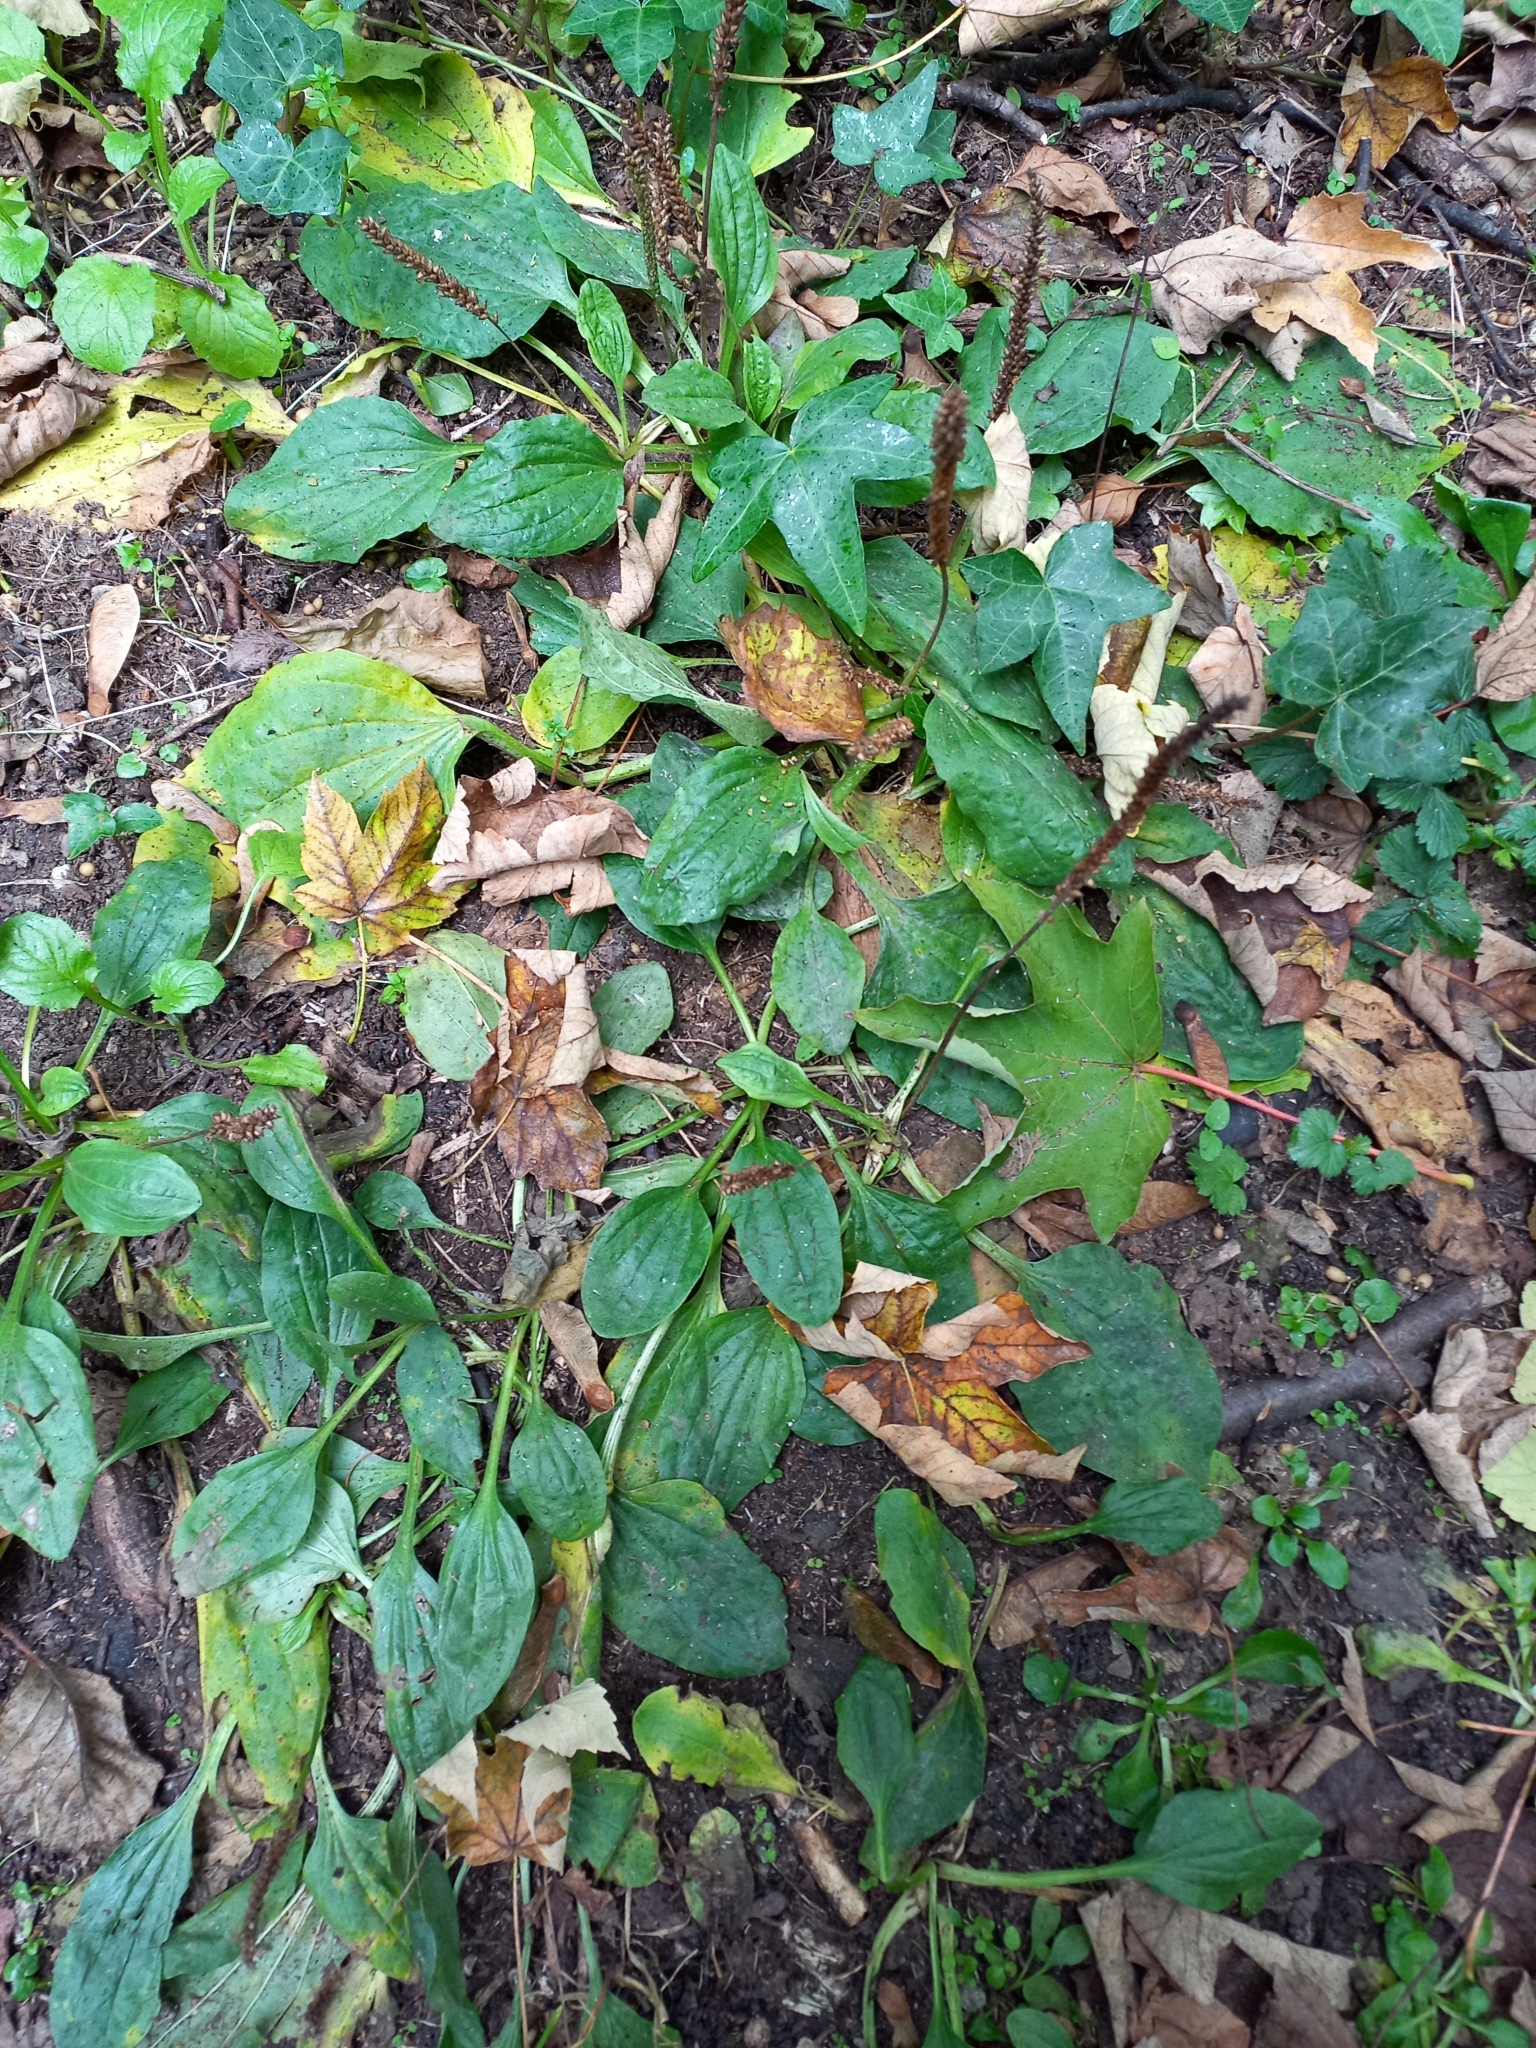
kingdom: Plantae
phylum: Tracheophyta
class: Magnoliopsida
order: Lamiales
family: Plantaginaceae
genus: Plantago
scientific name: Plantago major
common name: Common plantain
